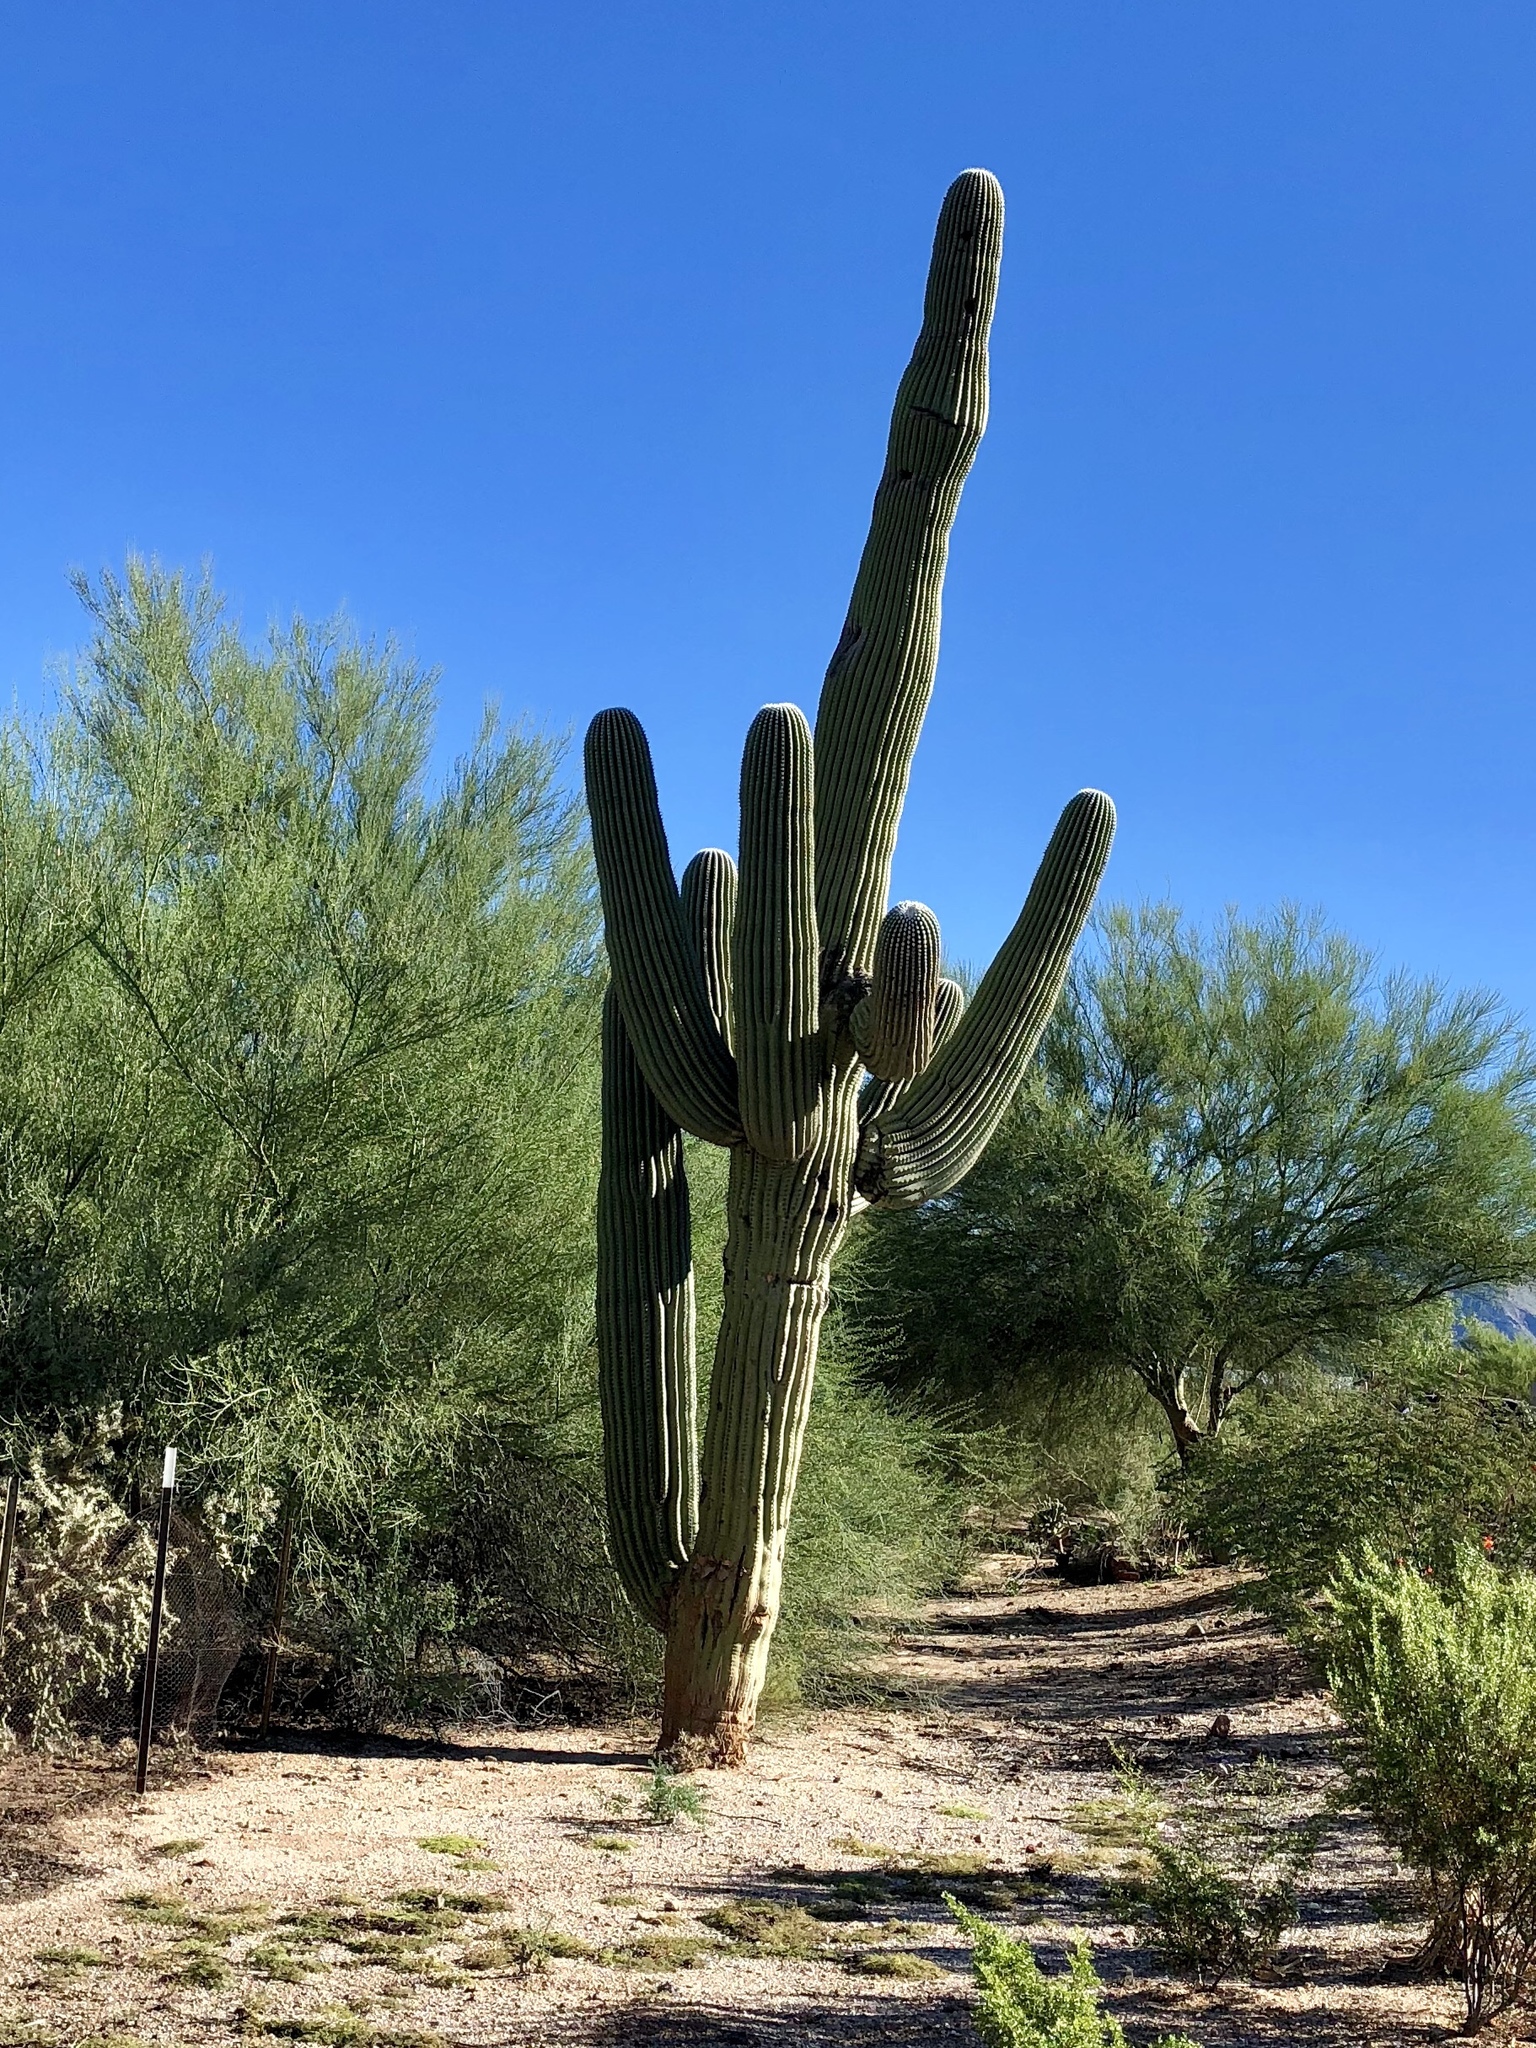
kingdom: Plantae
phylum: Tracheophyta
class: Magnoliopsida
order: Caryophyllales
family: Cactaceae
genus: Carnegiea
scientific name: Carnegiea gigantea
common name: Saguaro
